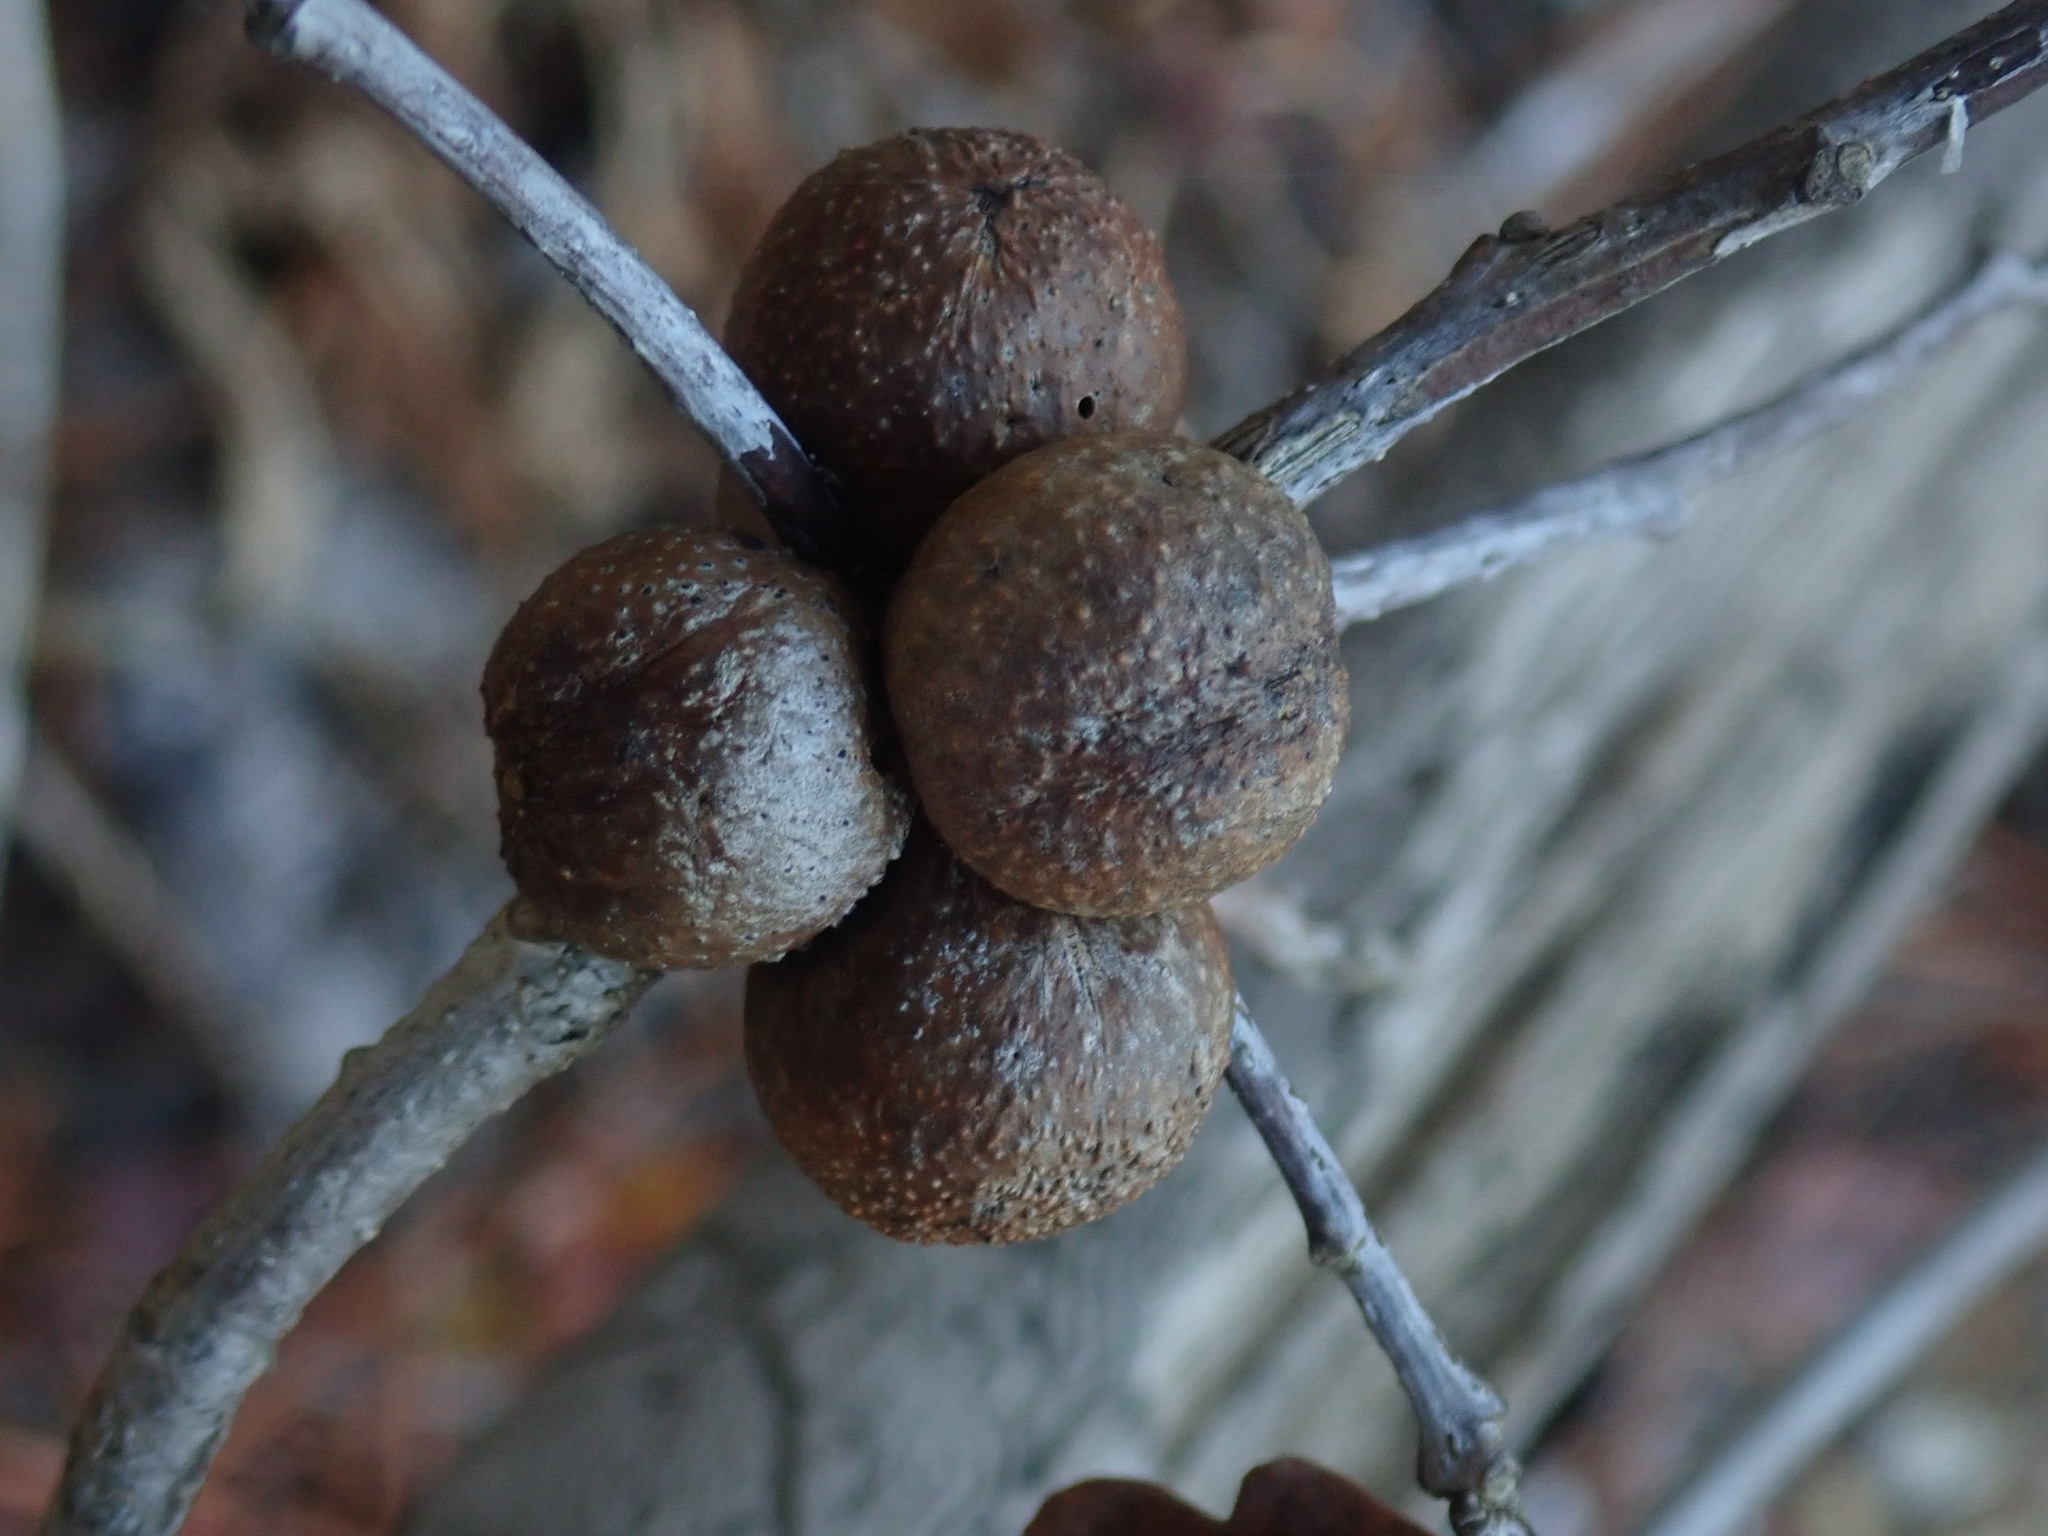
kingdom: Animalia
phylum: Arthropoda
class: Insecta
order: Hymenoptera
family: Cynipidae
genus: Disholcaspis
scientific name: Disholcaspis quercusglobulus
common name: Round bullet gall wasp
